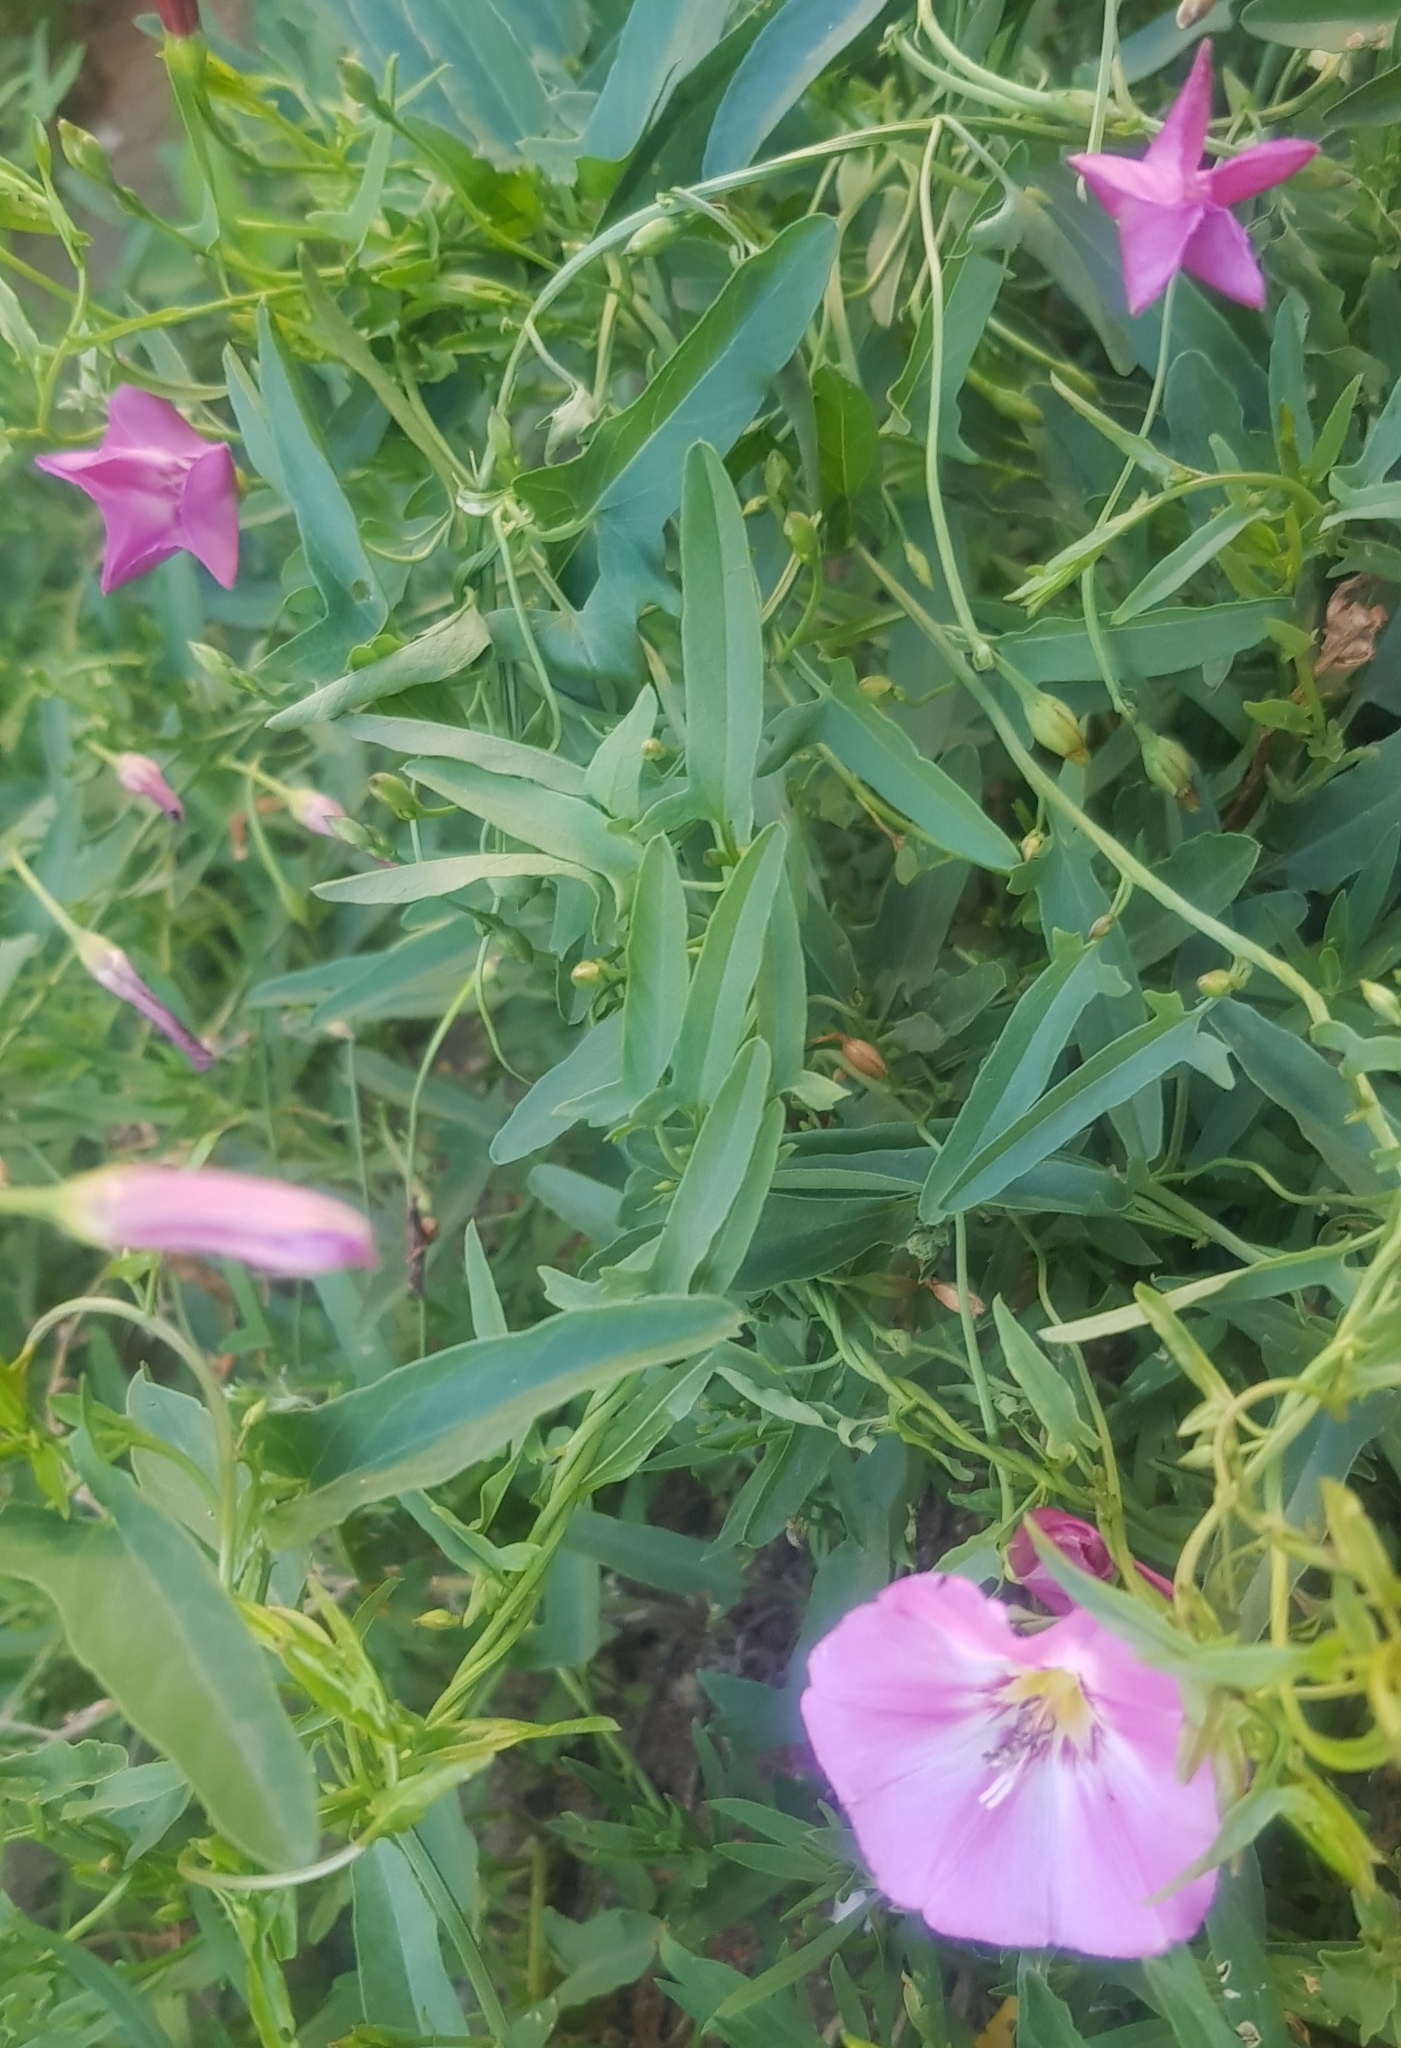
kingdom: Plantae
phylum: Tracheophyta
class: Magnoliopsida
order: Solanales
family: Convolvulaceae
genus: Convolvulus
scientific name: Convolvulus arvensis
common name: Field bindweed
